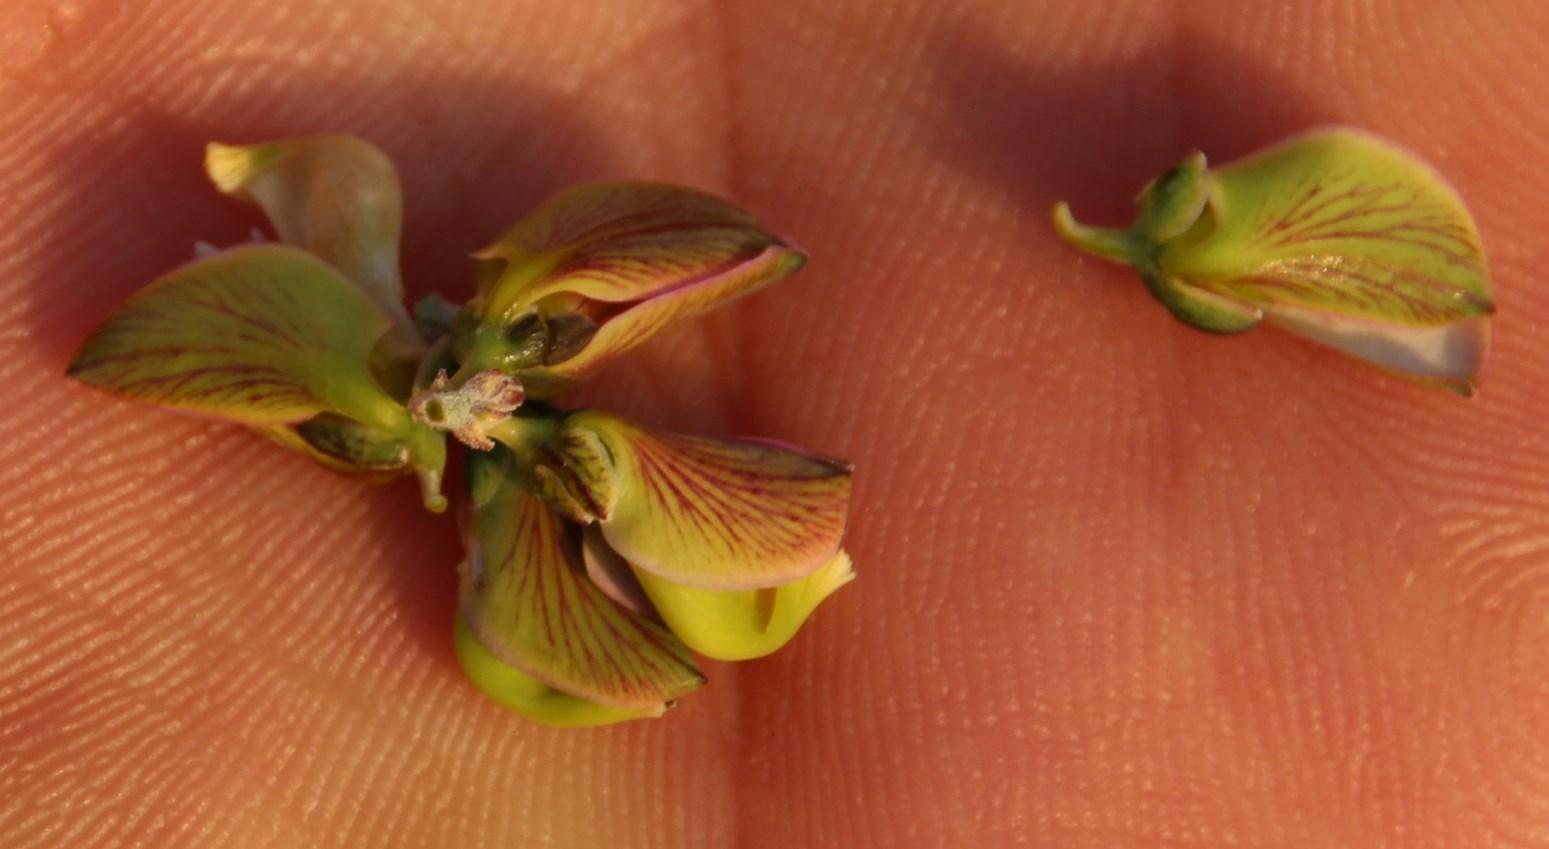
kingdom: Plantae
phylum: Tracheophyta
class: Magnoliopsida
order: Fabales
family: Polygalaceae
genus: Polygala
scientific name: Polygala teretifolia
